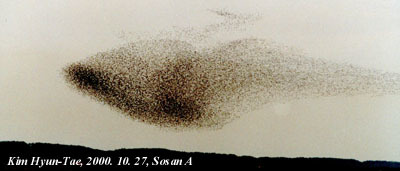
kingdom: Animalia
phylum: Chordata
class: Aves
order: Anseriformes
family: Anatidae
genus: Sibirionetta
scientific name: Sibirionetta formosa
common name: Baikal teal
